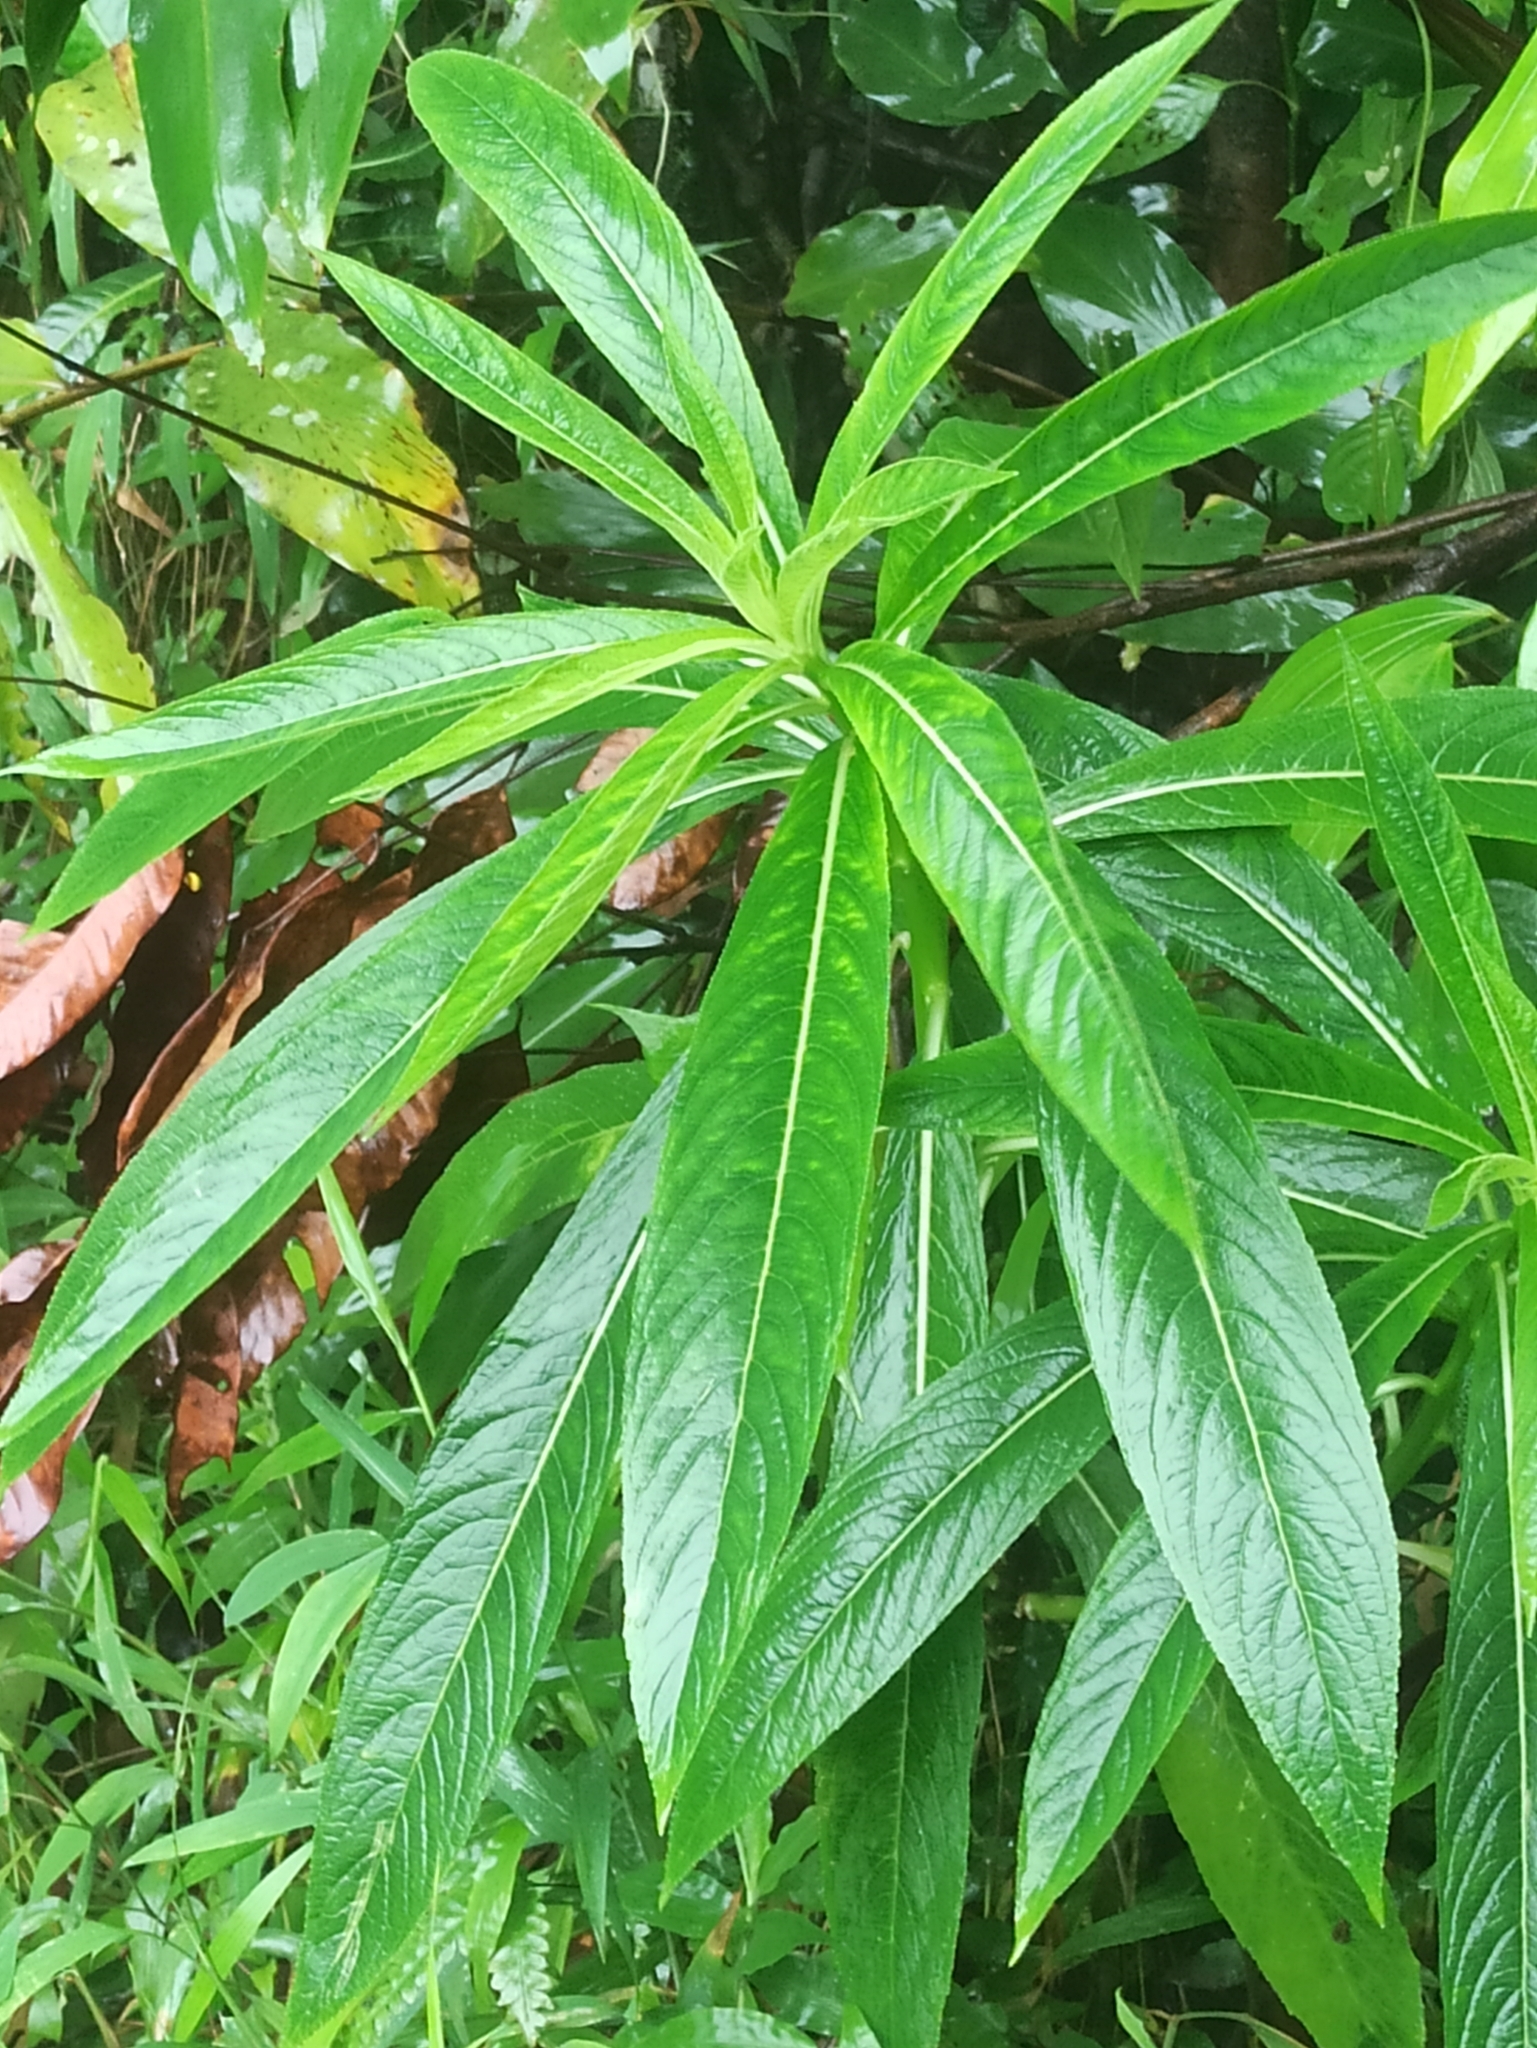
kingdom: Plantae
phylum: Tracheophyta
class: Magnoliopsida
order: Asterales
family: Campanulaceae
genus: Lobelia
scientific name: Lobelia nicotianifolia
